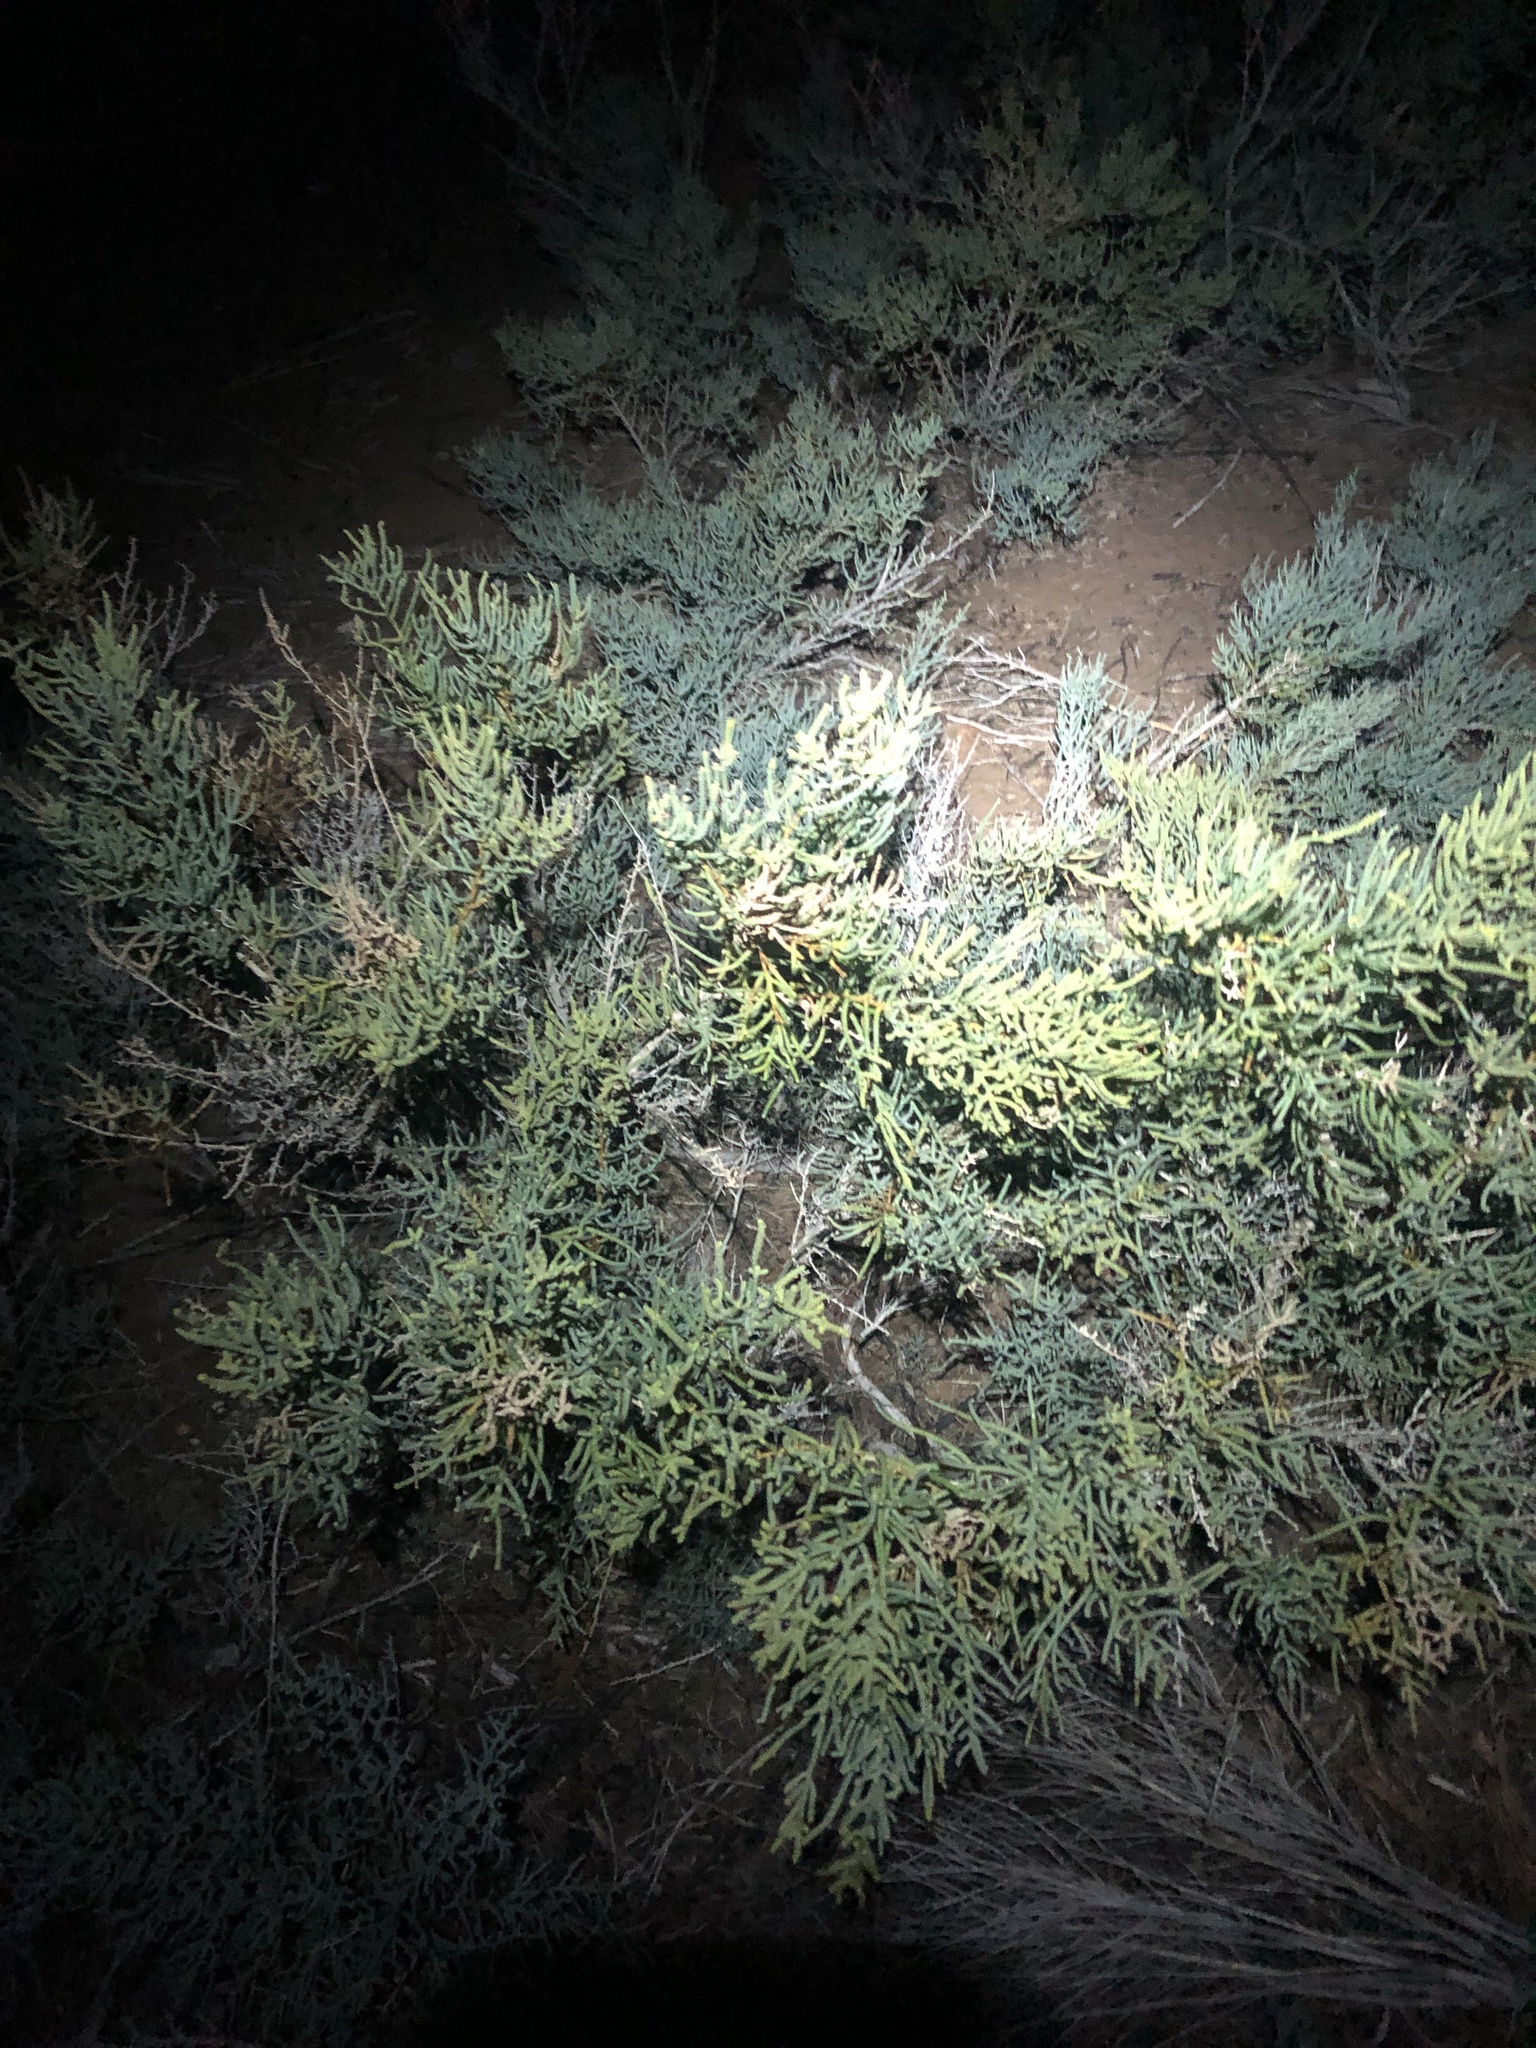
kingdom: Plantae
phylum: Tracheophyta
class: Magnoliopsida
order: Caryophyllales
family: Amaranthaceae
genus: Allenrolfea
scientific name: Allenrolfea occidentalis
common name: Iodine-bush
